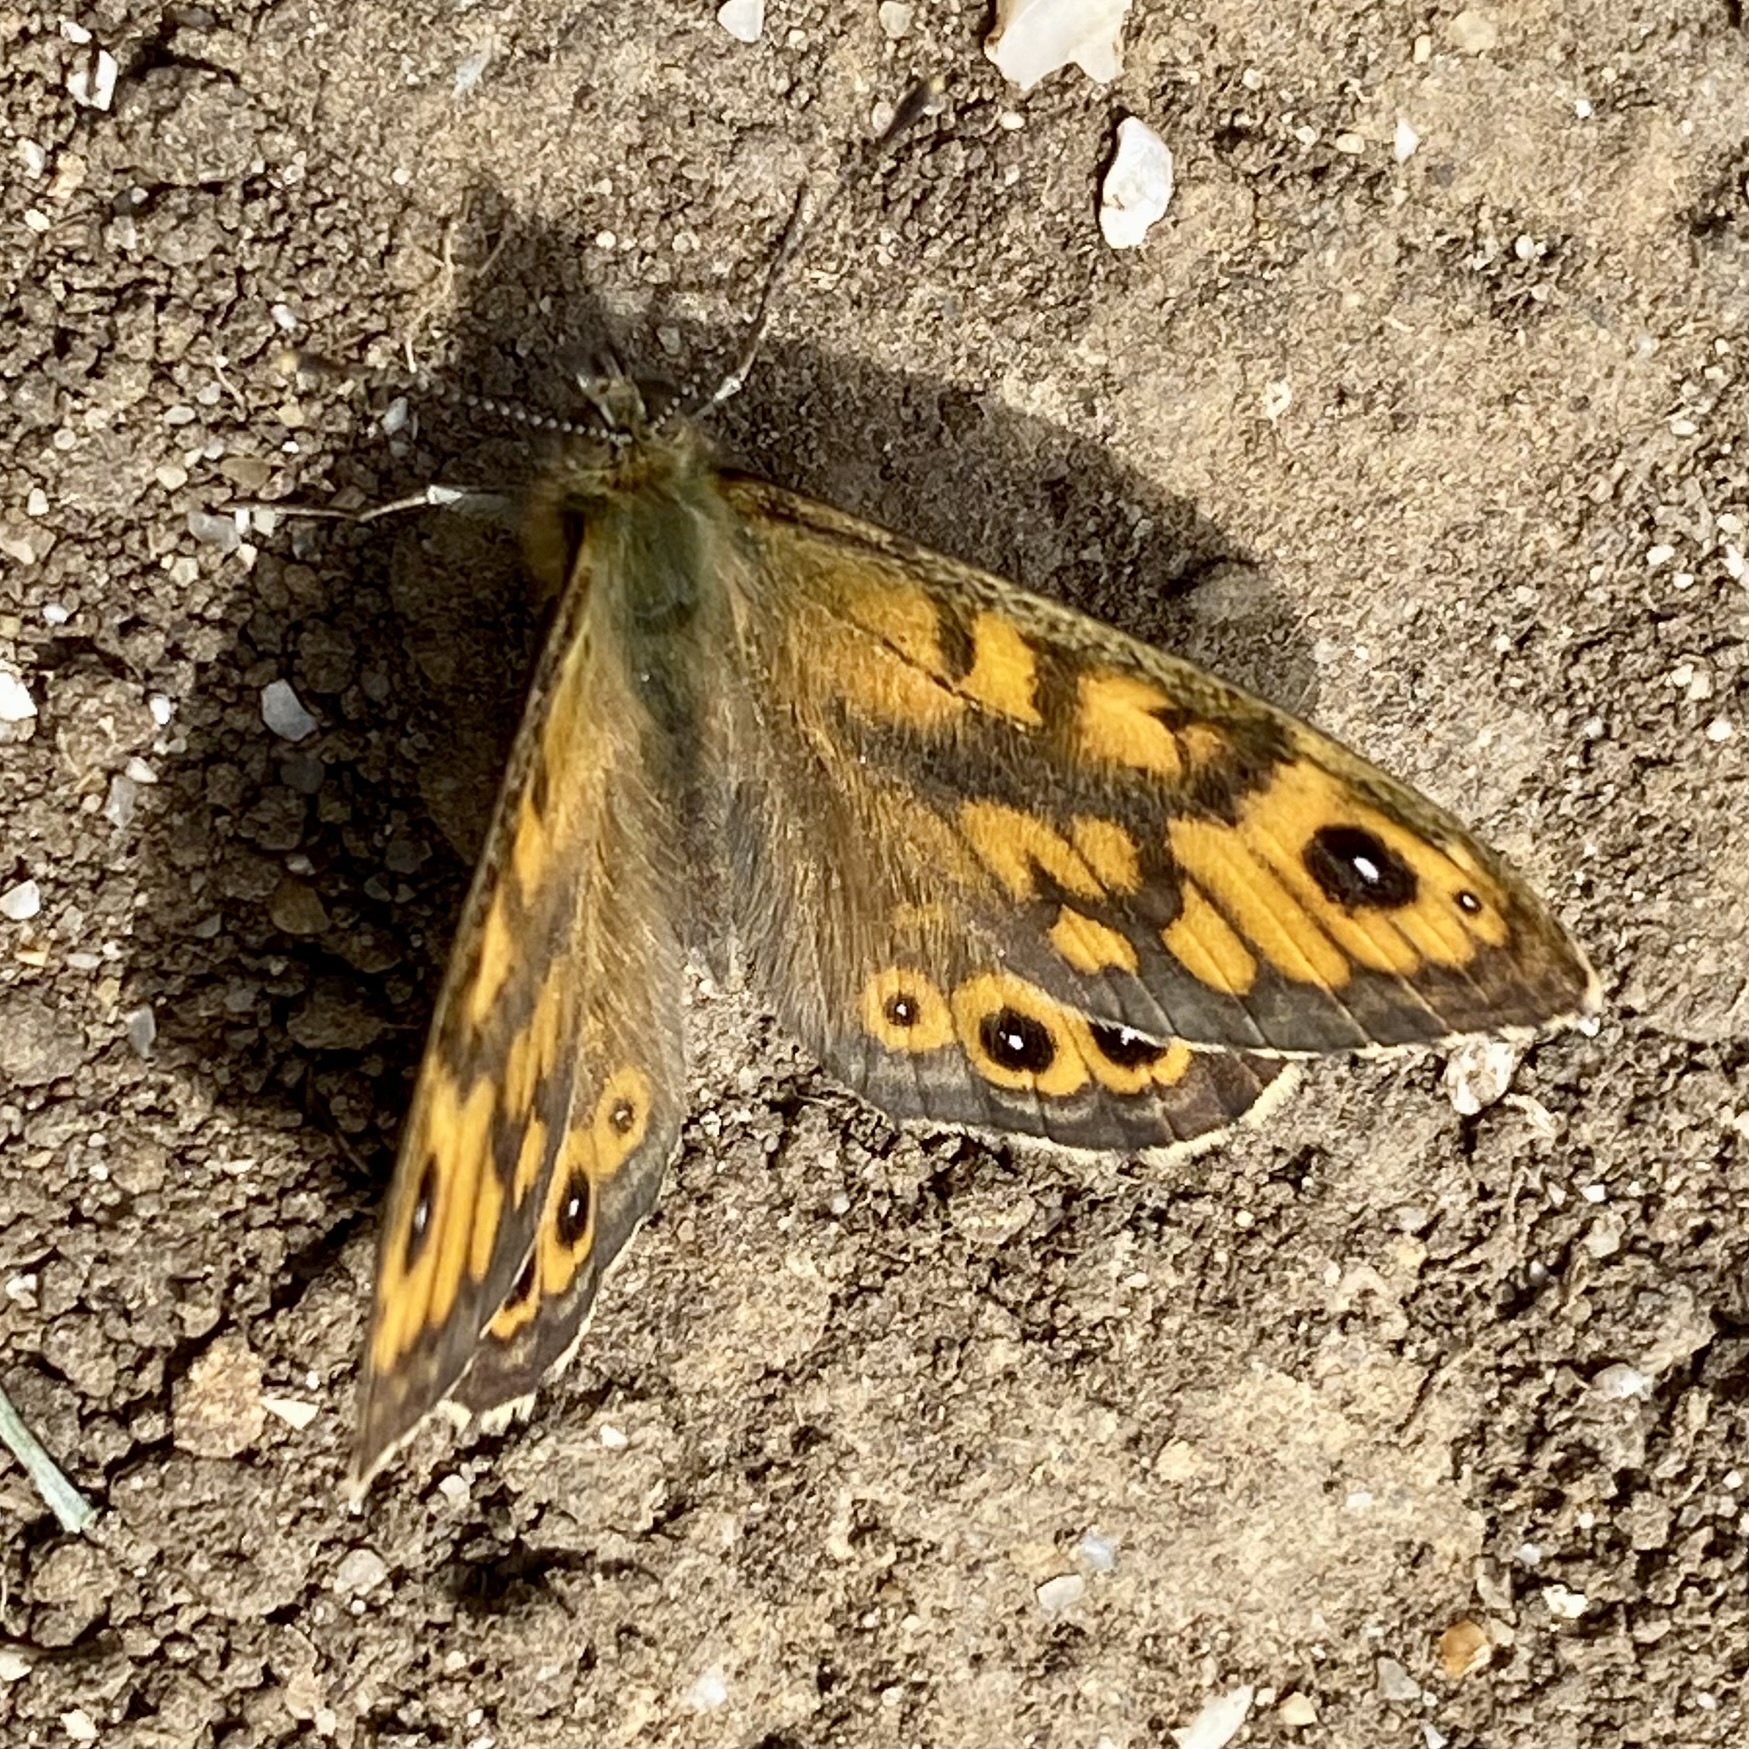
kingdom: Animalia
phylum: Arthropoda
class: Insecta
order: Lepidoptera
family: Nymphalidae
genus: Pararge
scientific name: Pararge Lasiommata megera
